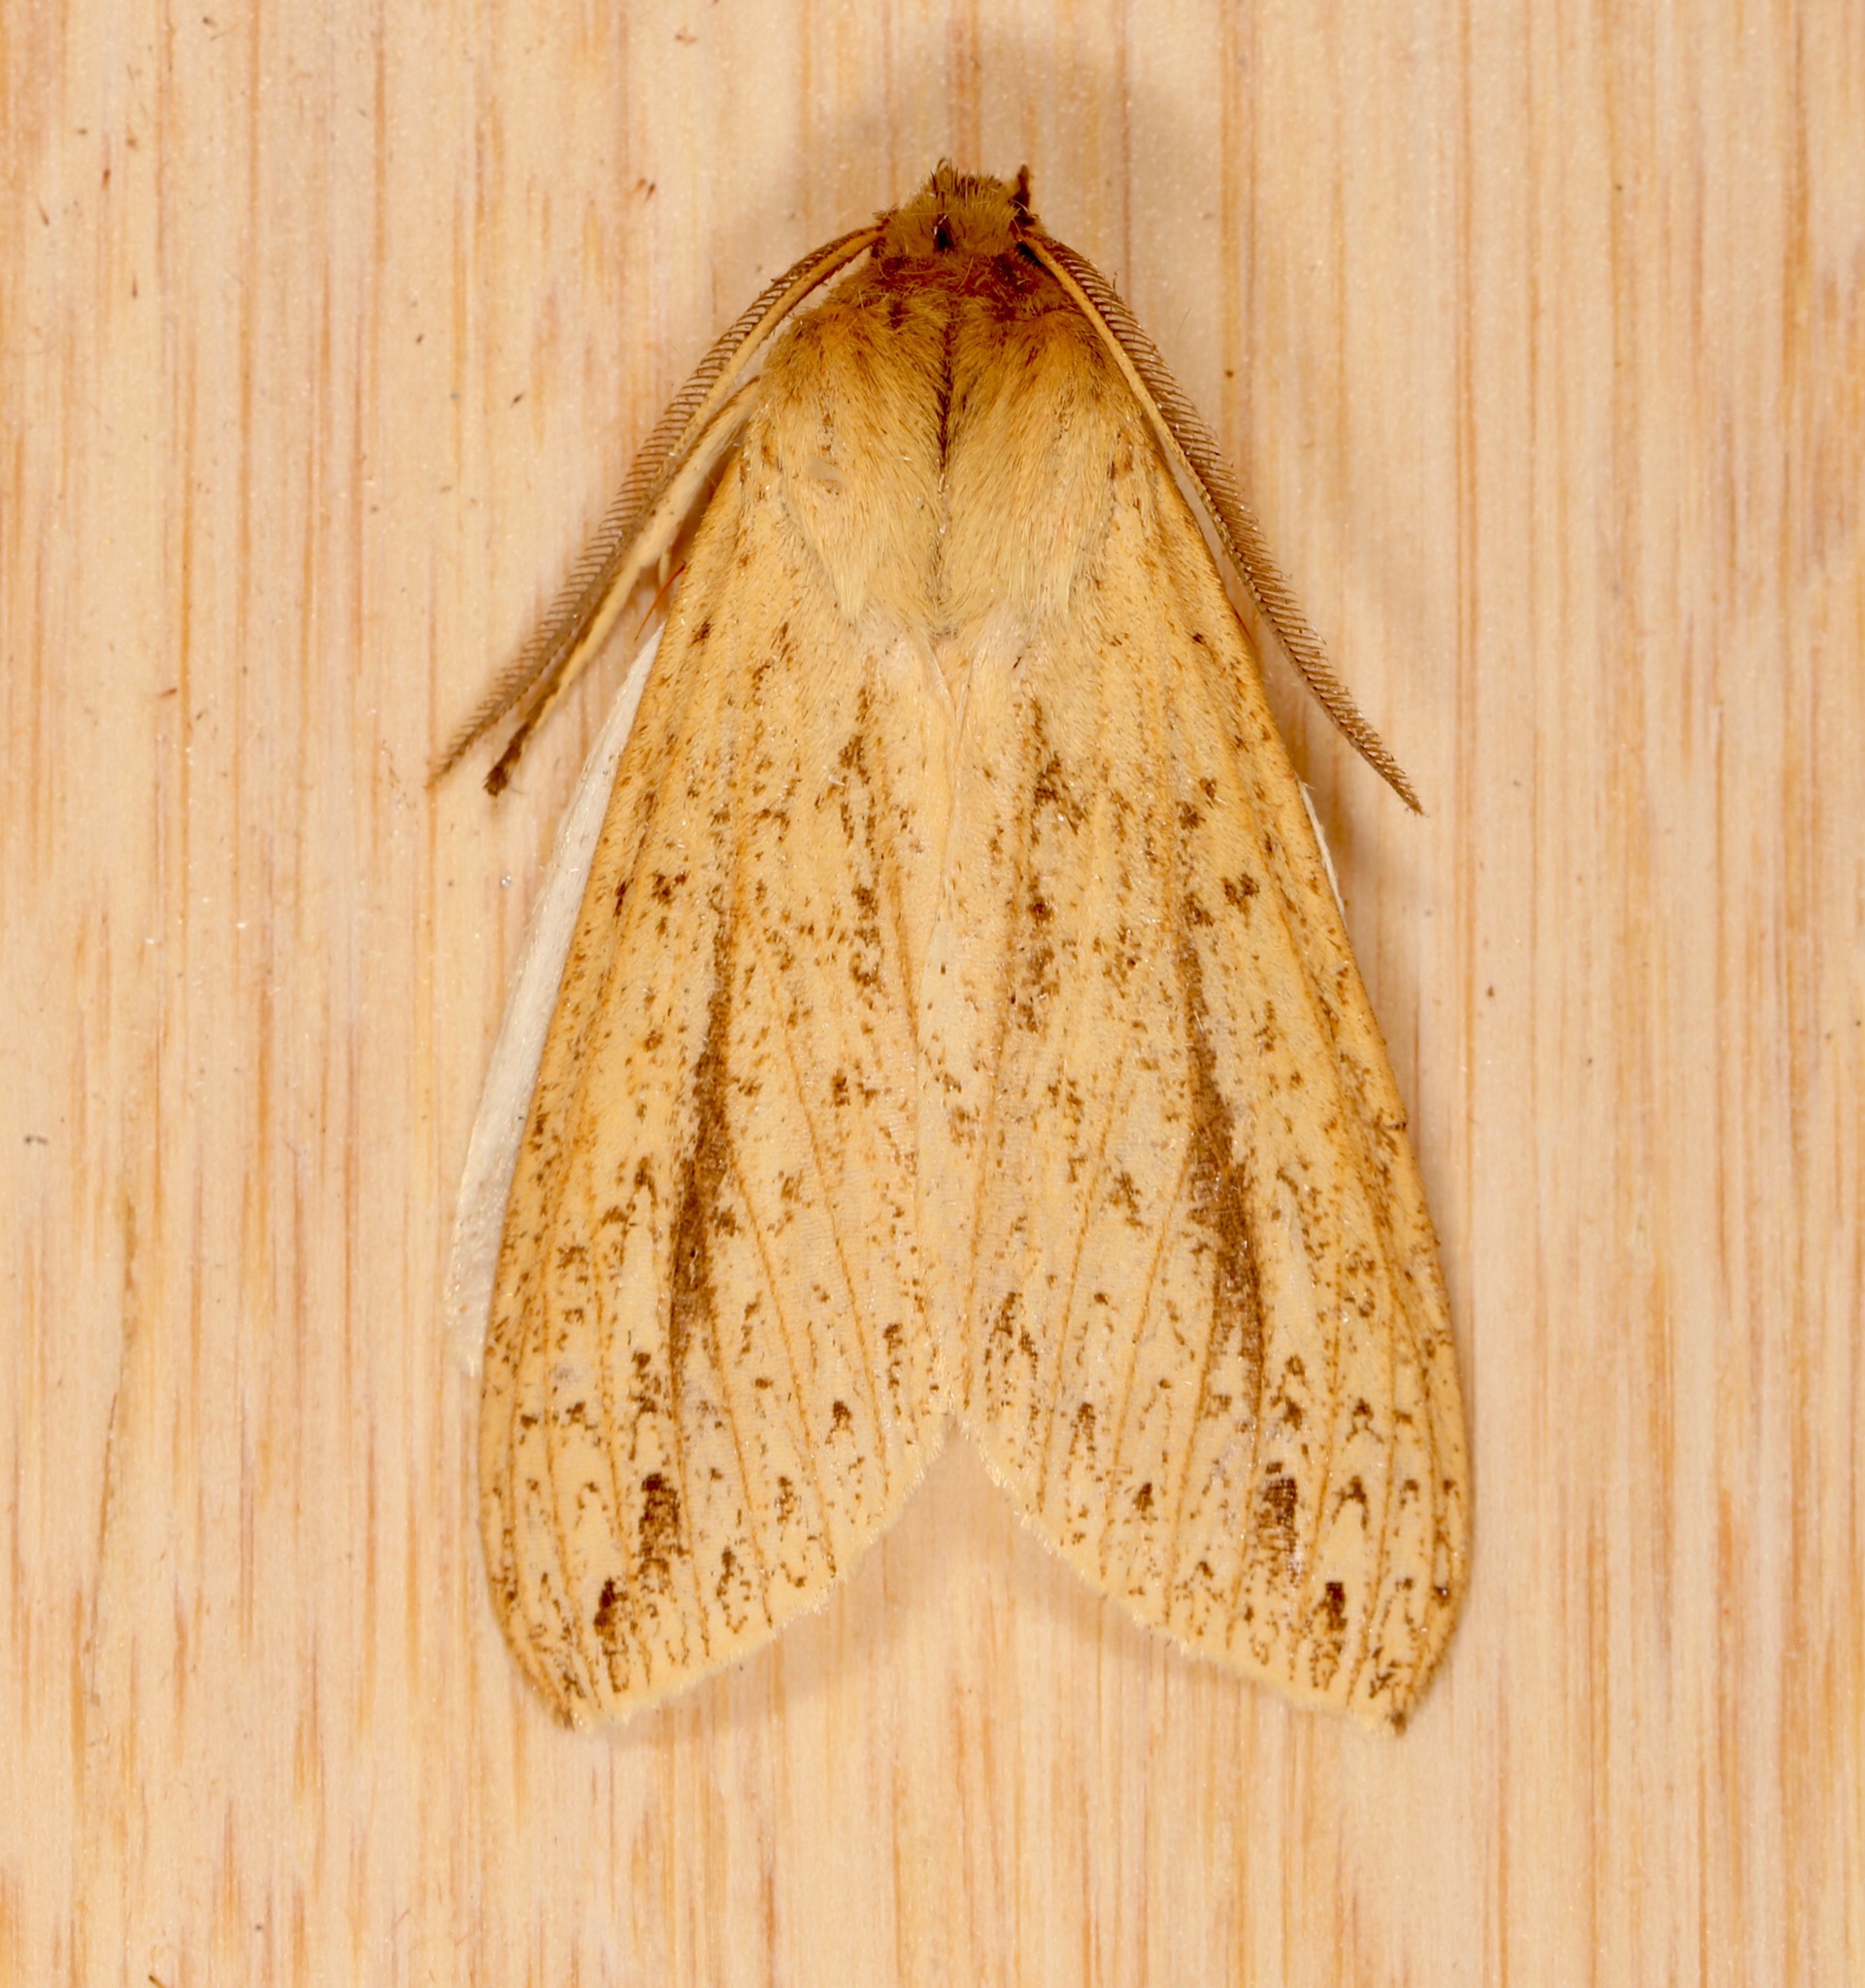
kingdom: Animalia
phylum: Arthropoda
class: Insecta
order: Lepidoptera
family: Erebidae
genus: Leucanopsis
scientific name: Leucanopsis longa
